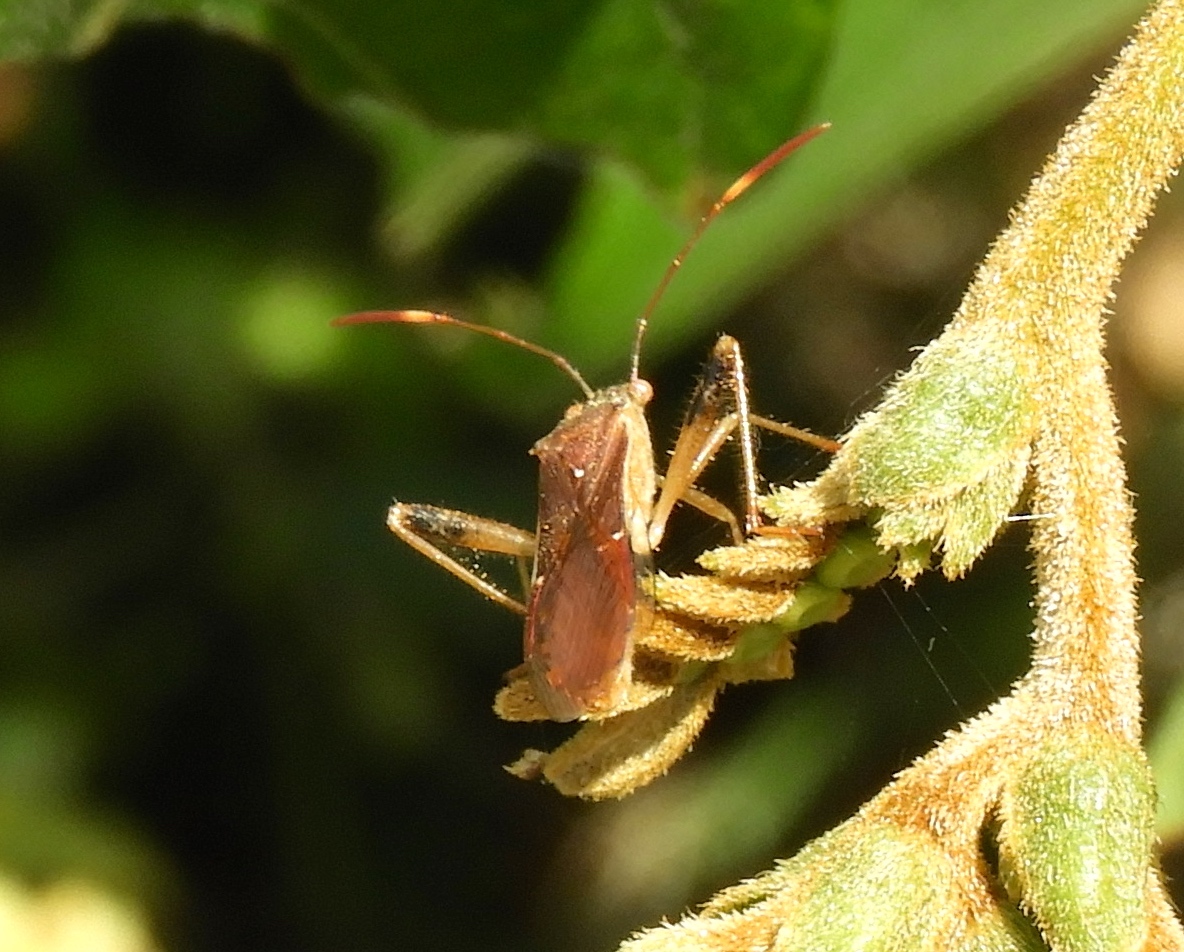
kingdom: Animalia
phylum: Arthropoda
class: Insecta
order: Hemiptera
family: Alydidae
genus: Burtinus
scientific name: Burtinus notatipennis
